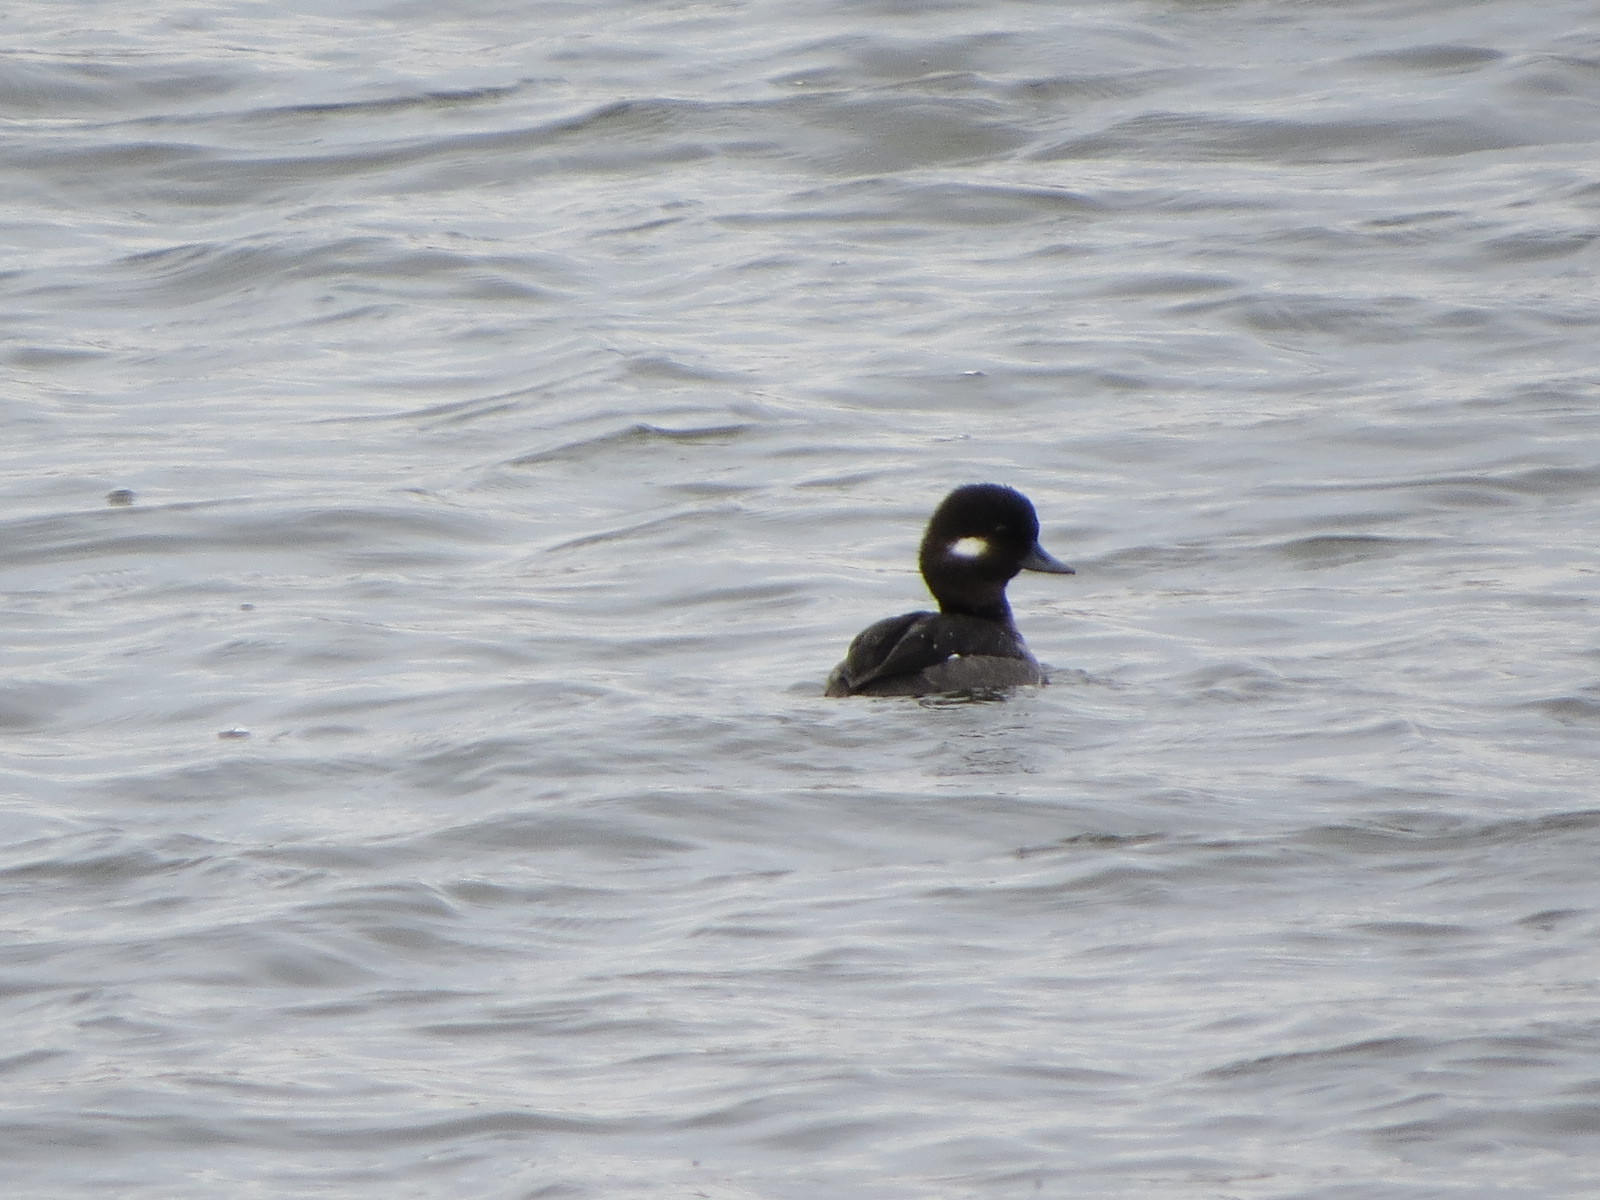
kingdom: Animalia
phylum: Chordata
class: Aves
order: Anseriformes
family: Anatidae
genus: Bucephala
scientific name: Bucephala albeola
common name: Bufflehead
